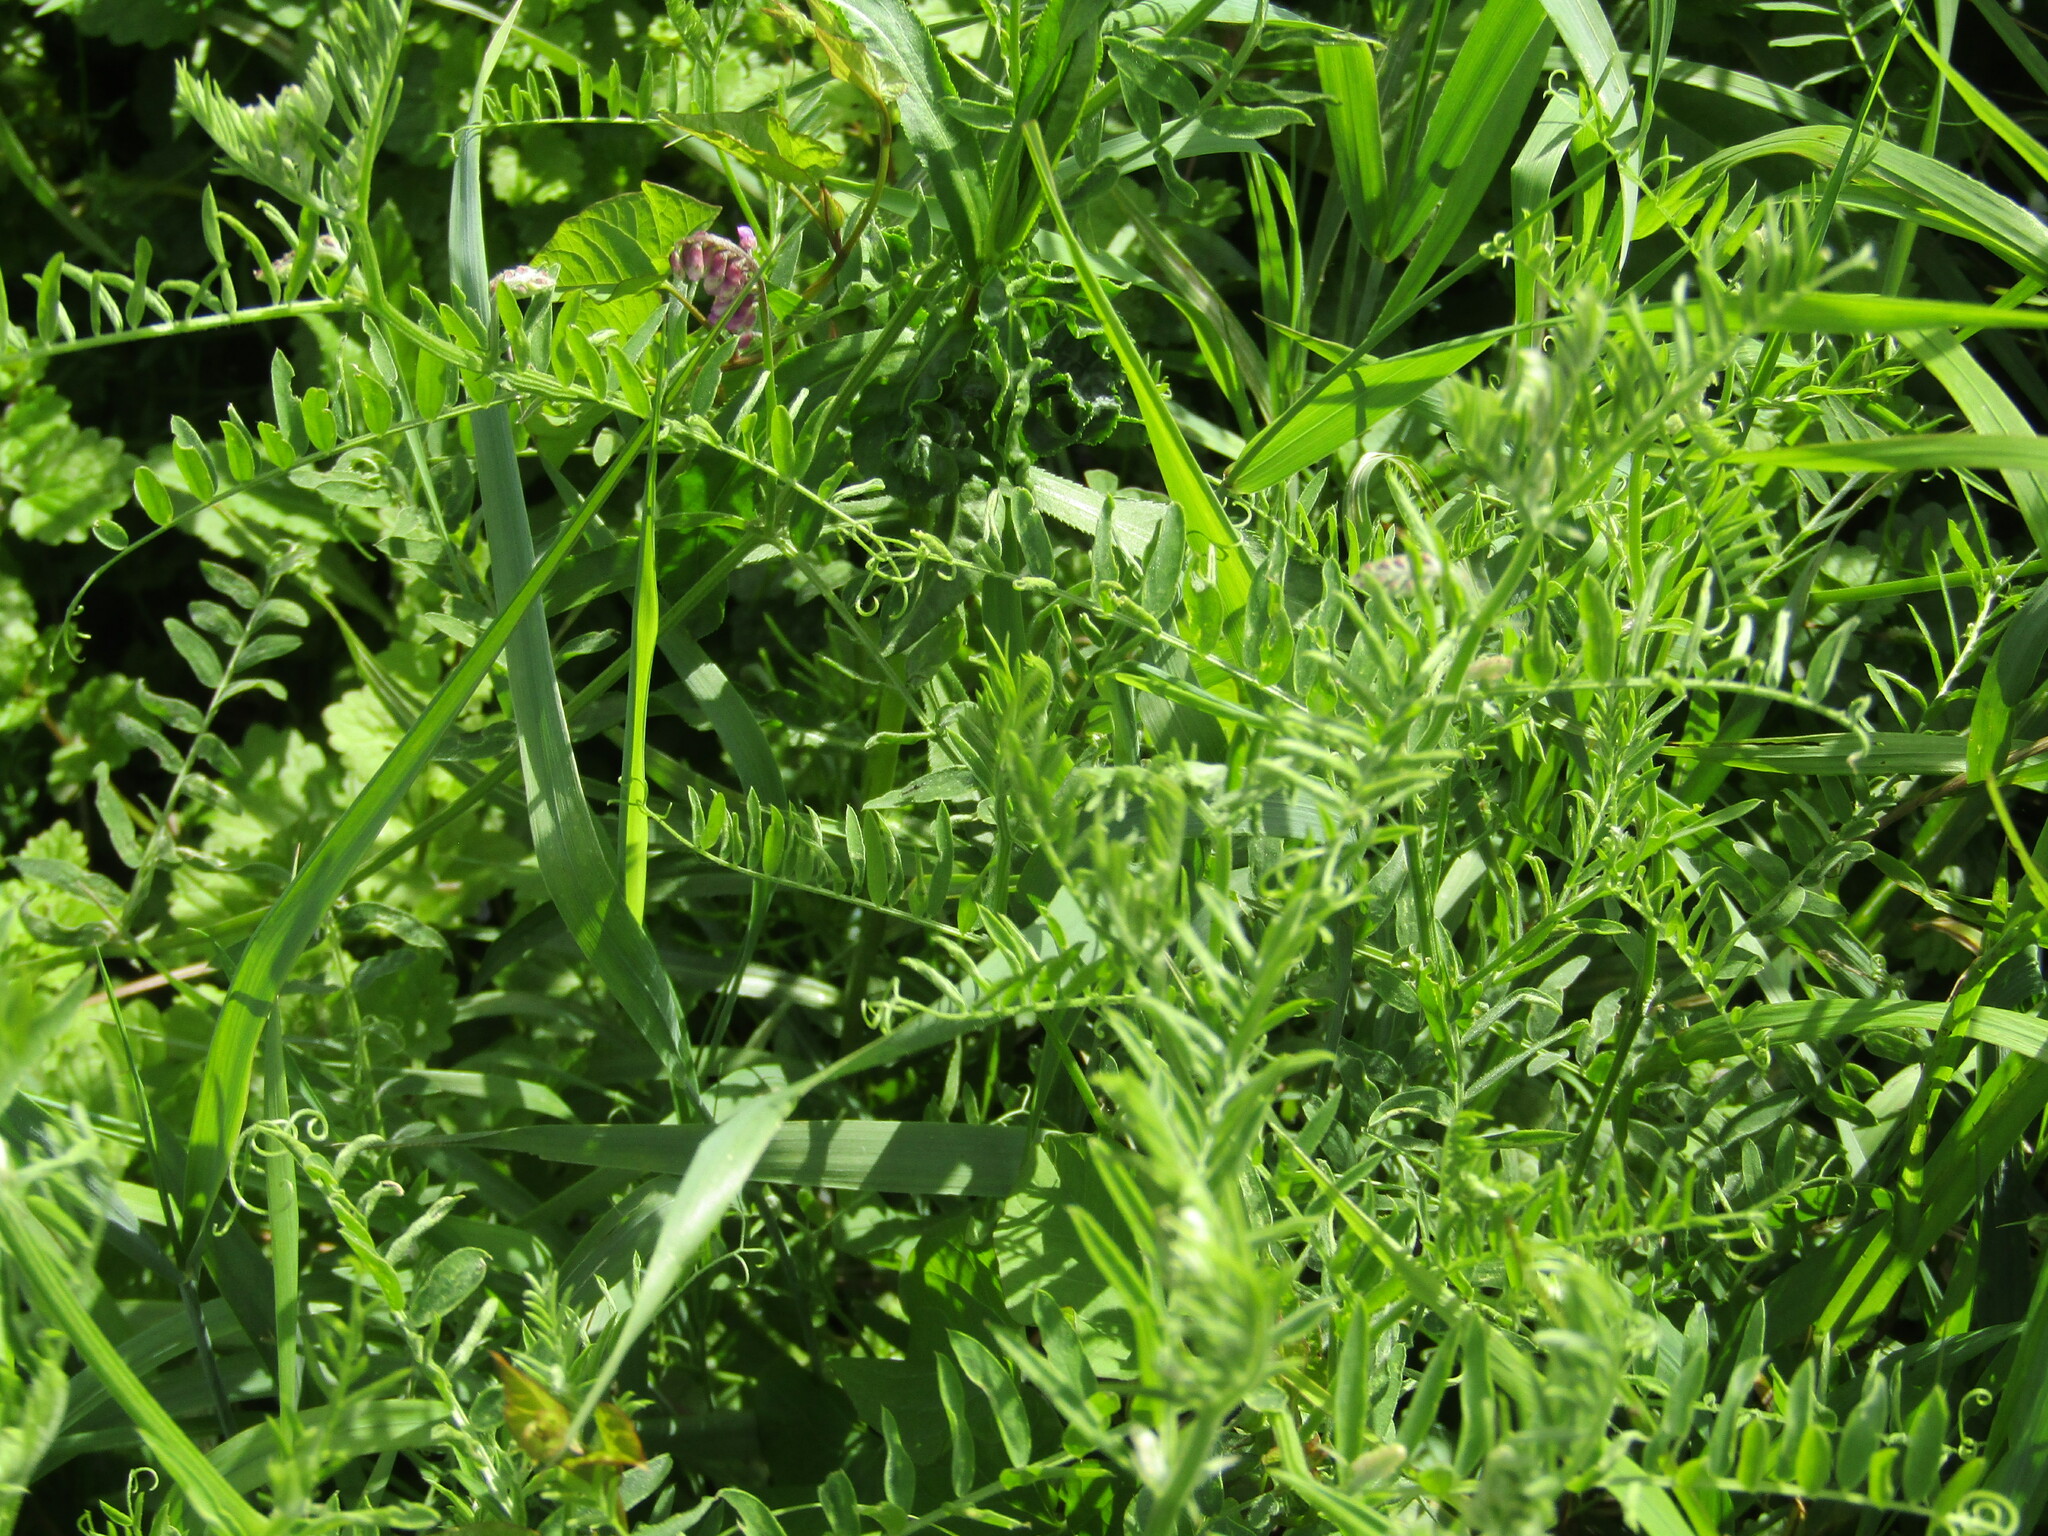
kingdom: Plantae
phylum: Tracheophyta
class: Magnoliopsida
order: Fabales
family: Fabaceae
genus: Vicia
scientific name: Vicia cracca
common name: Bird vetch
